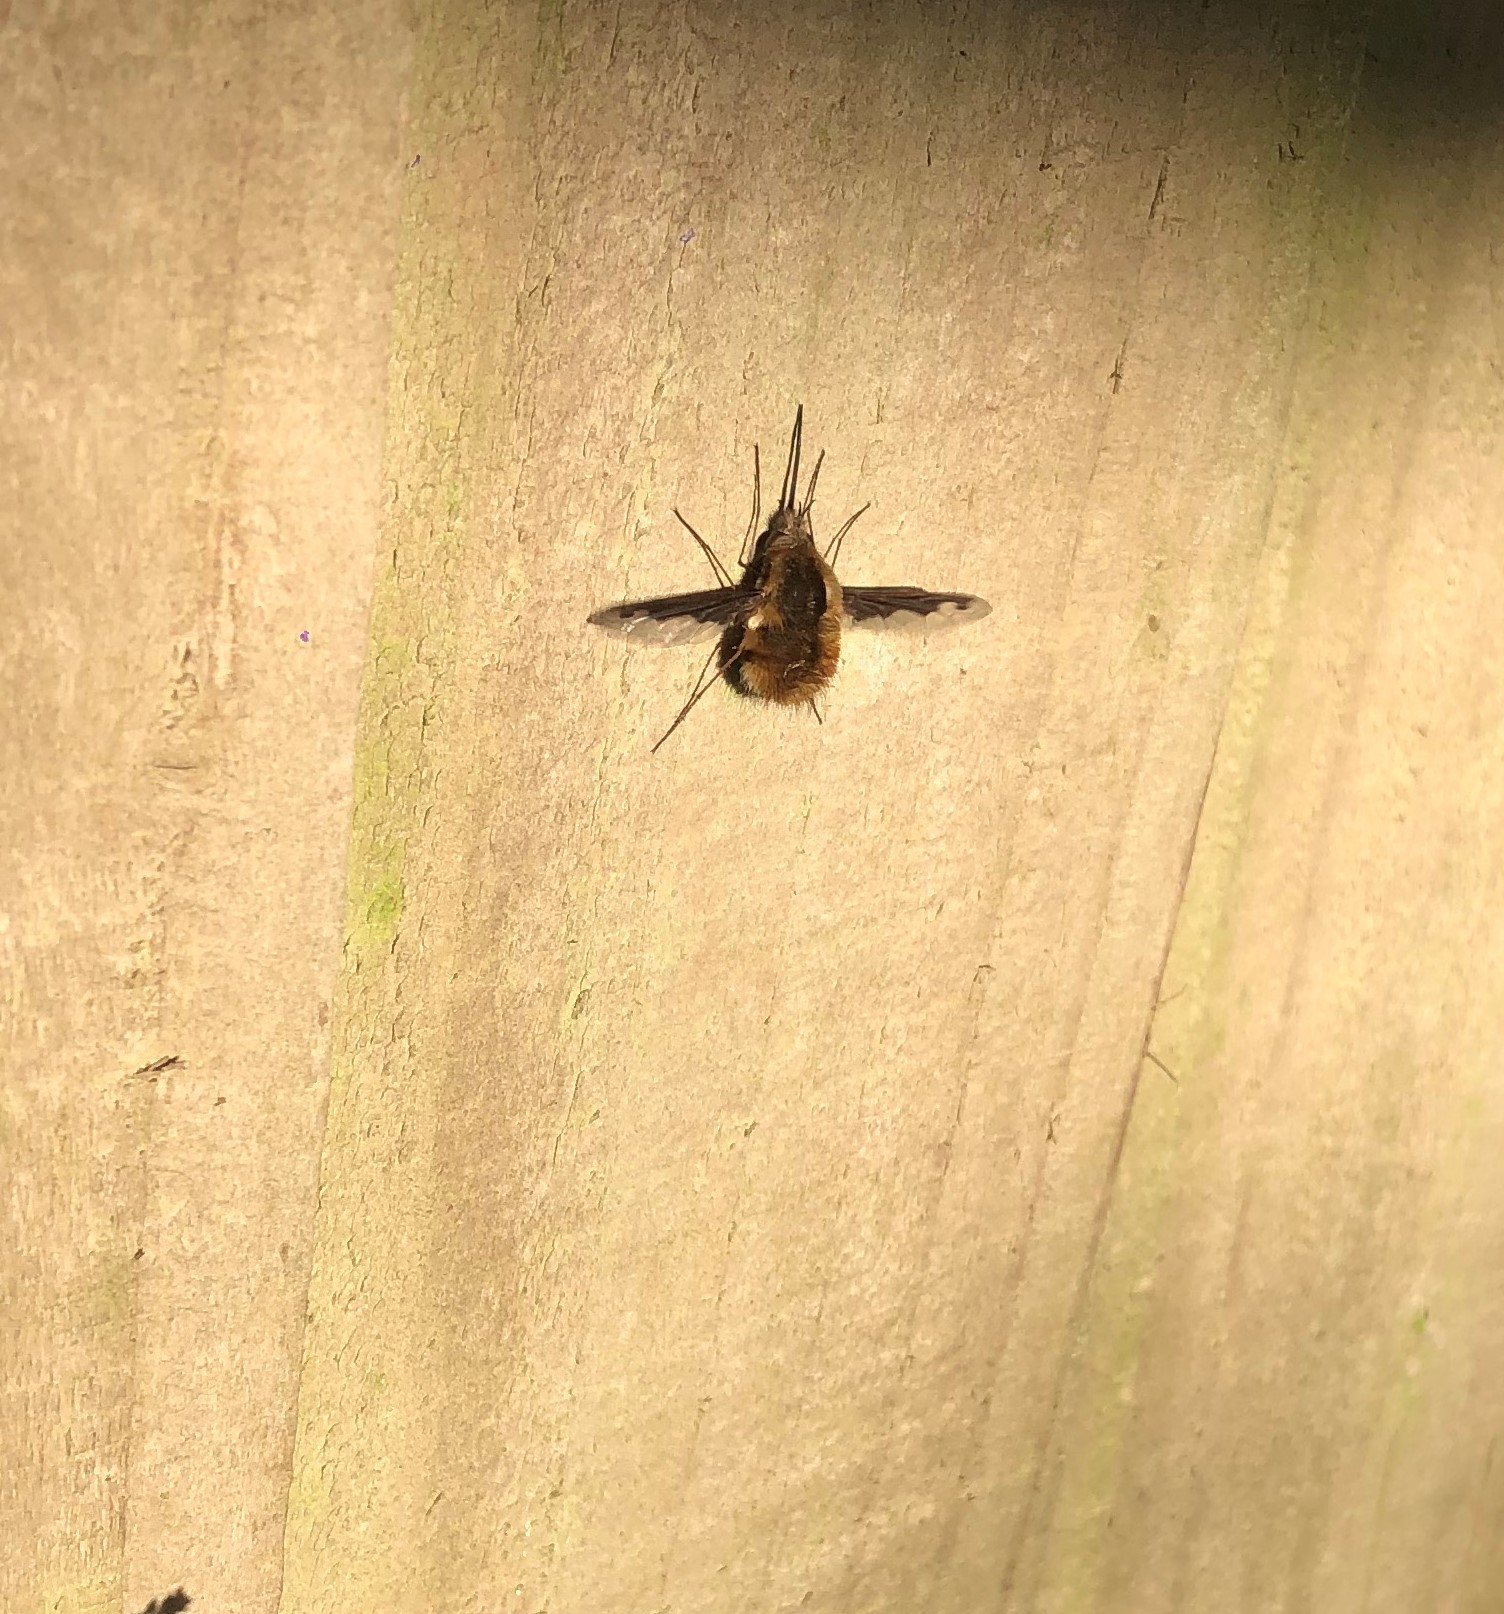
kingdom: Animalia
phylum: Arthropoda
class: Insecta
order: Diptera
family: Bombyliidae
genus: Bombylius
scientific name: Bombylius major
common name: Bee fly
